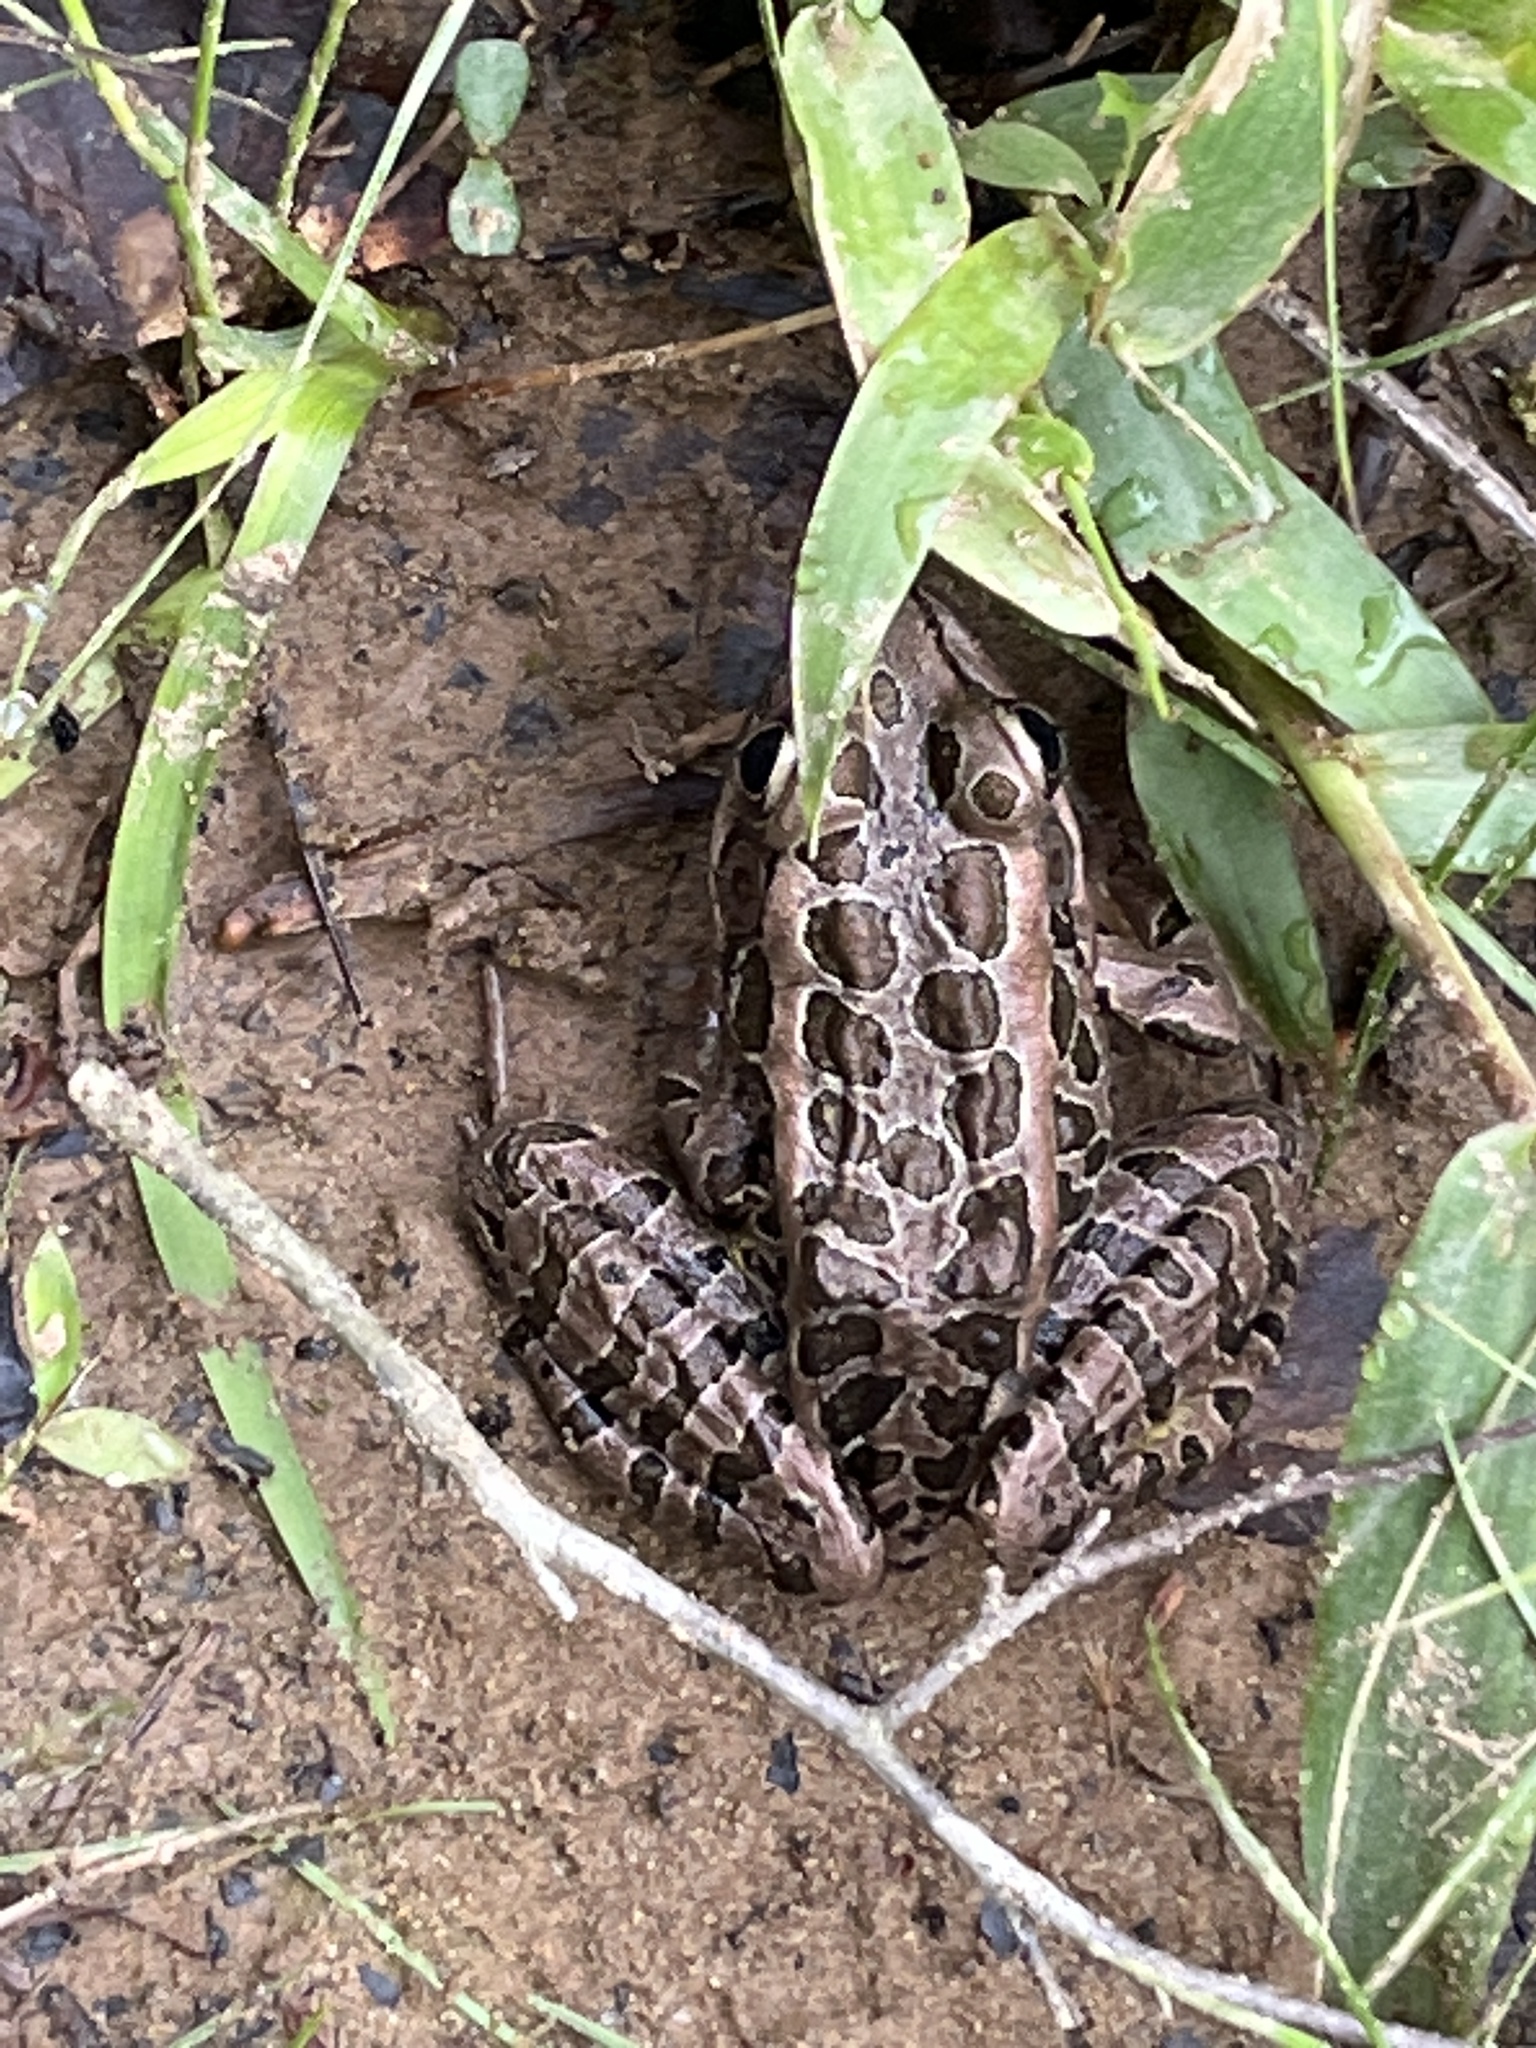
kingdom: Animalia
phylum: Chordata
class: Amphibia
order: Anura
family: Ranidae
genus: Lithobates
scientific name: Lithobates palustris
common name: Pickerel frog
